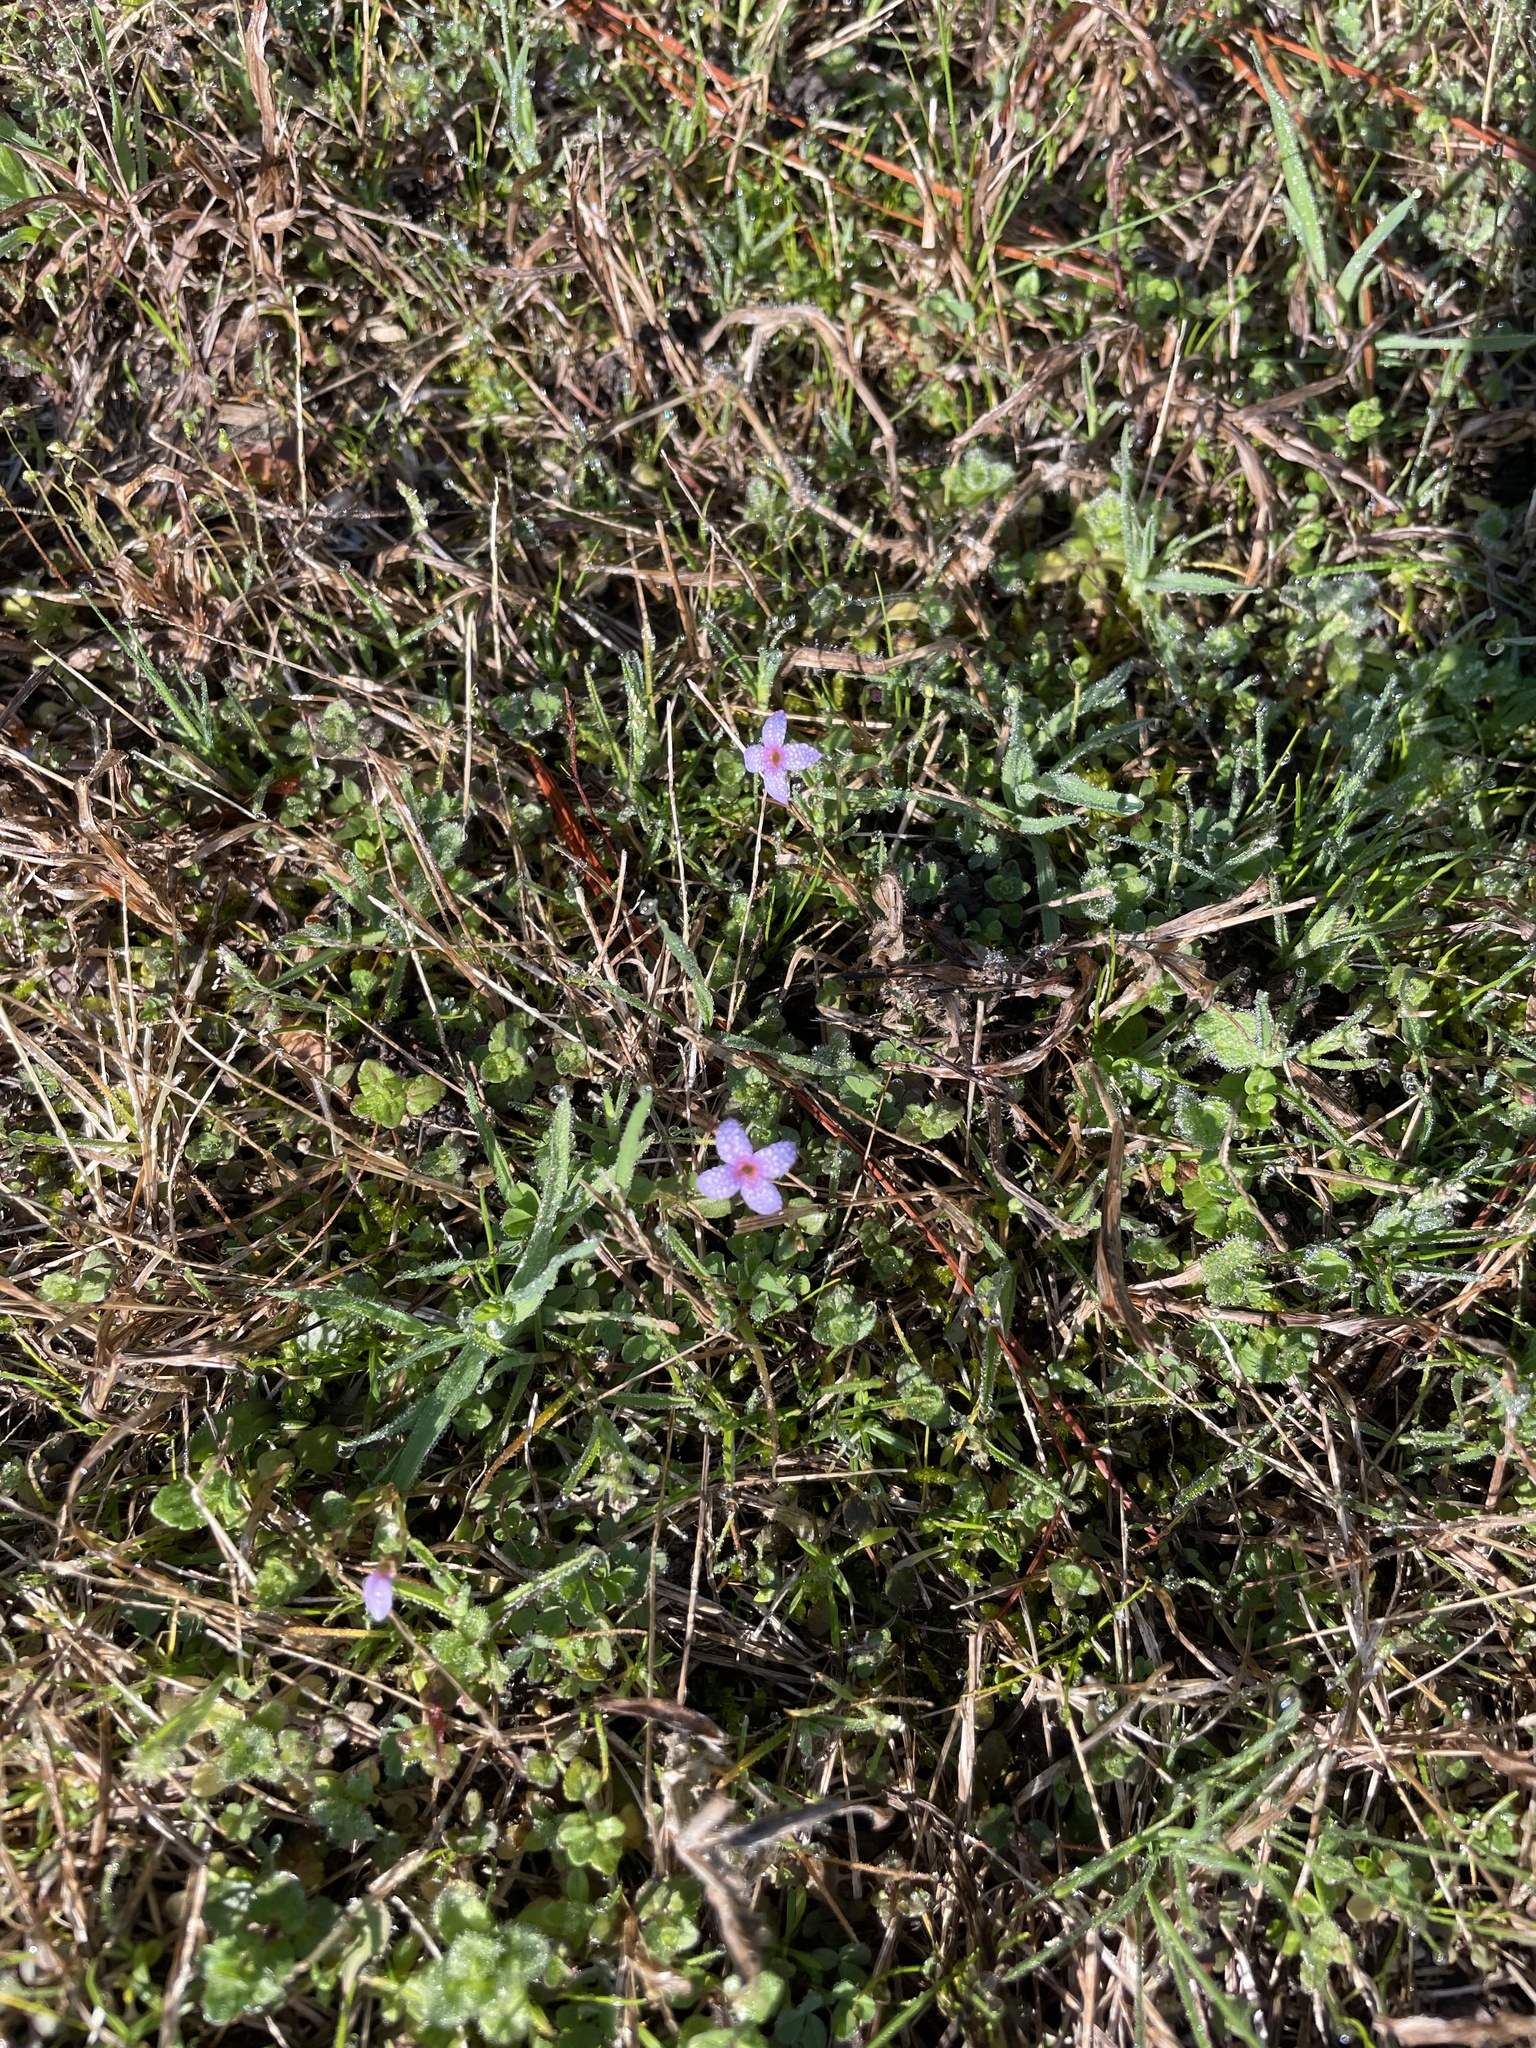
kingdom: Plantae
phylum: Tracheophyta
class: Magnoliopsida
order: Gentianales
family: Rubiaceae
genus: Houstonia
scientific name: Houstonia pusilla
